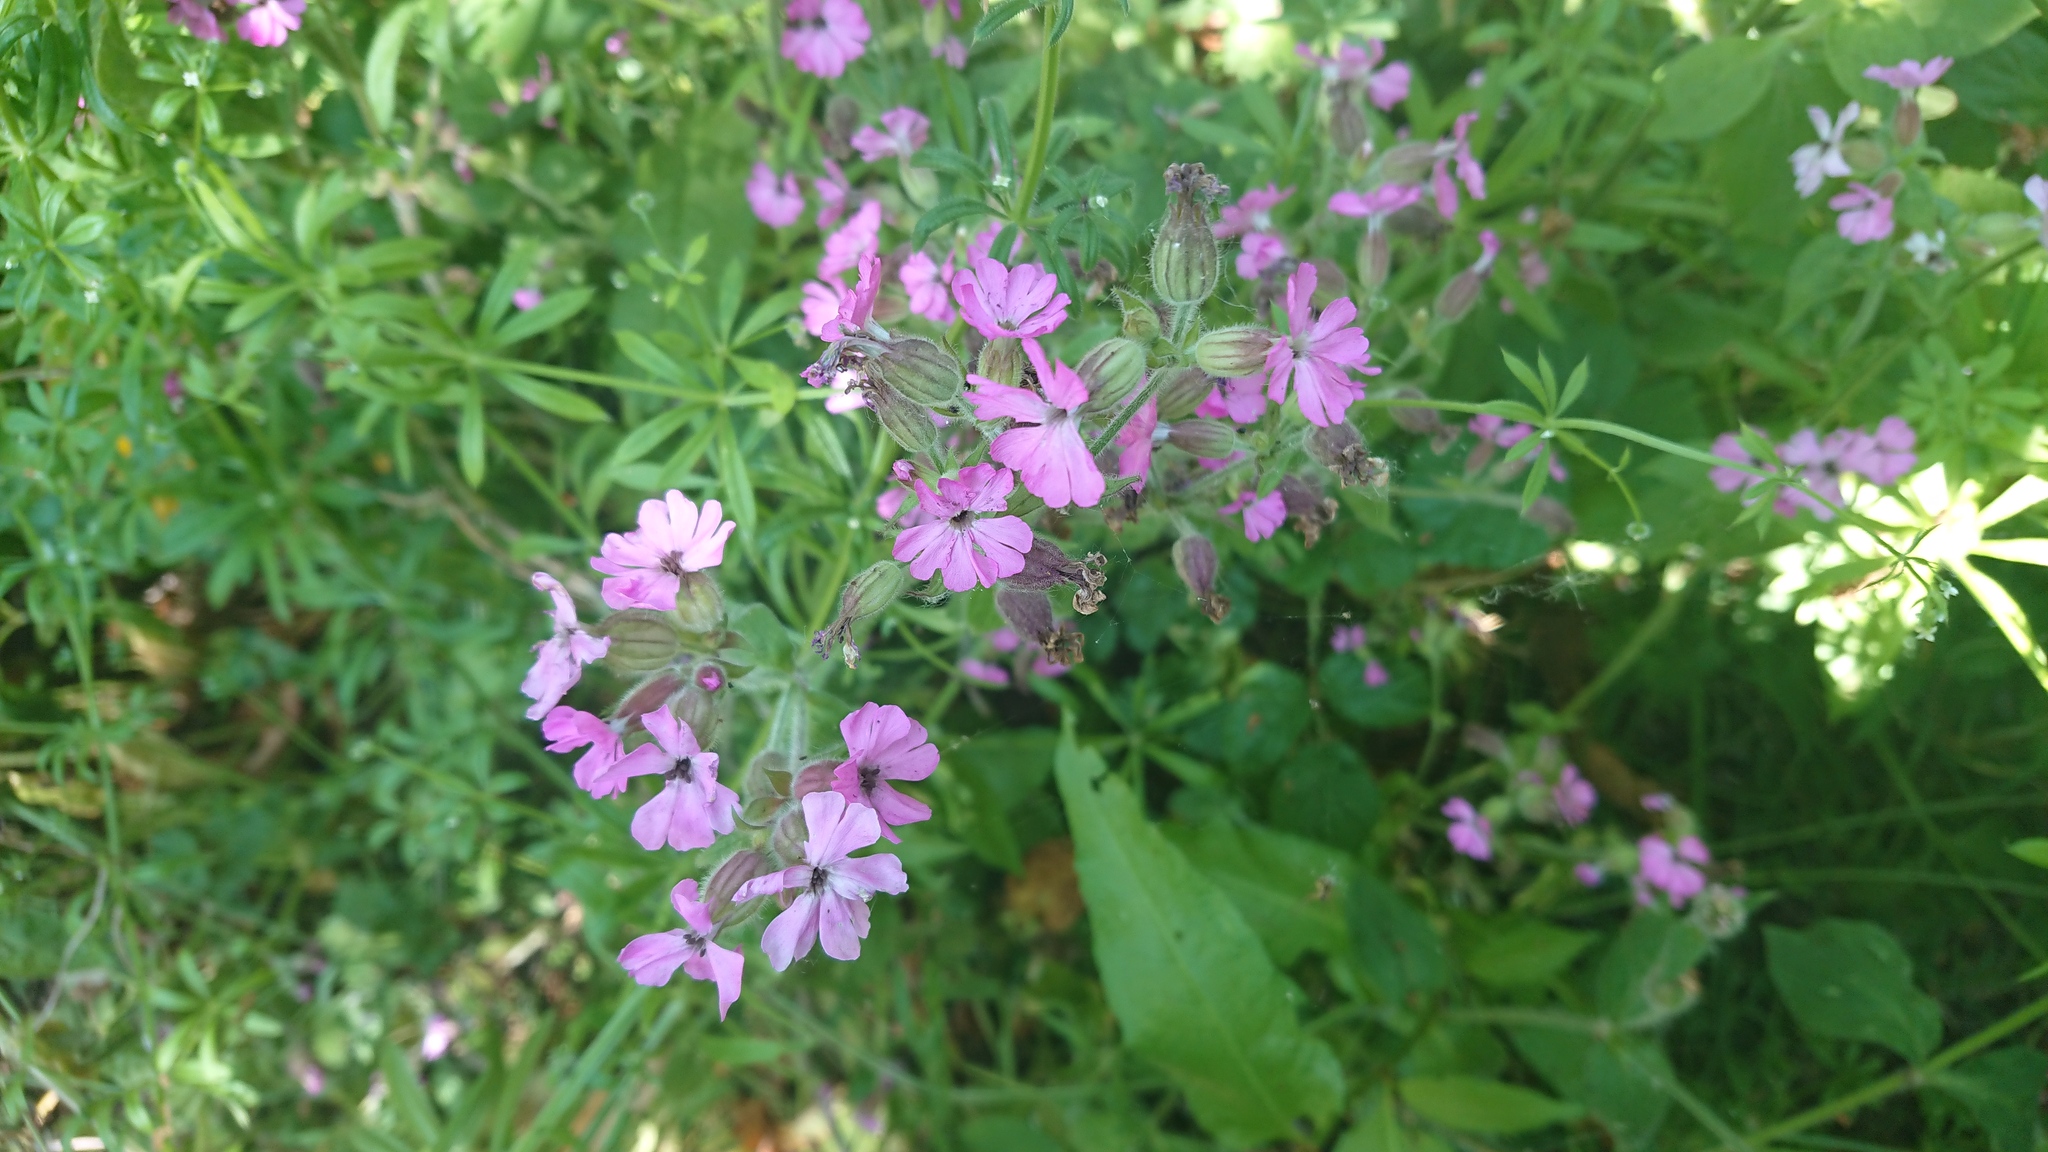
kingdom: Plantae
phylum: Tracheophyta
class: Magnoliopsida
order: Caryophyllales
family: Caryophyllaceae
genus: Silene
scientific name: Silene dioica
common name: Red campion
